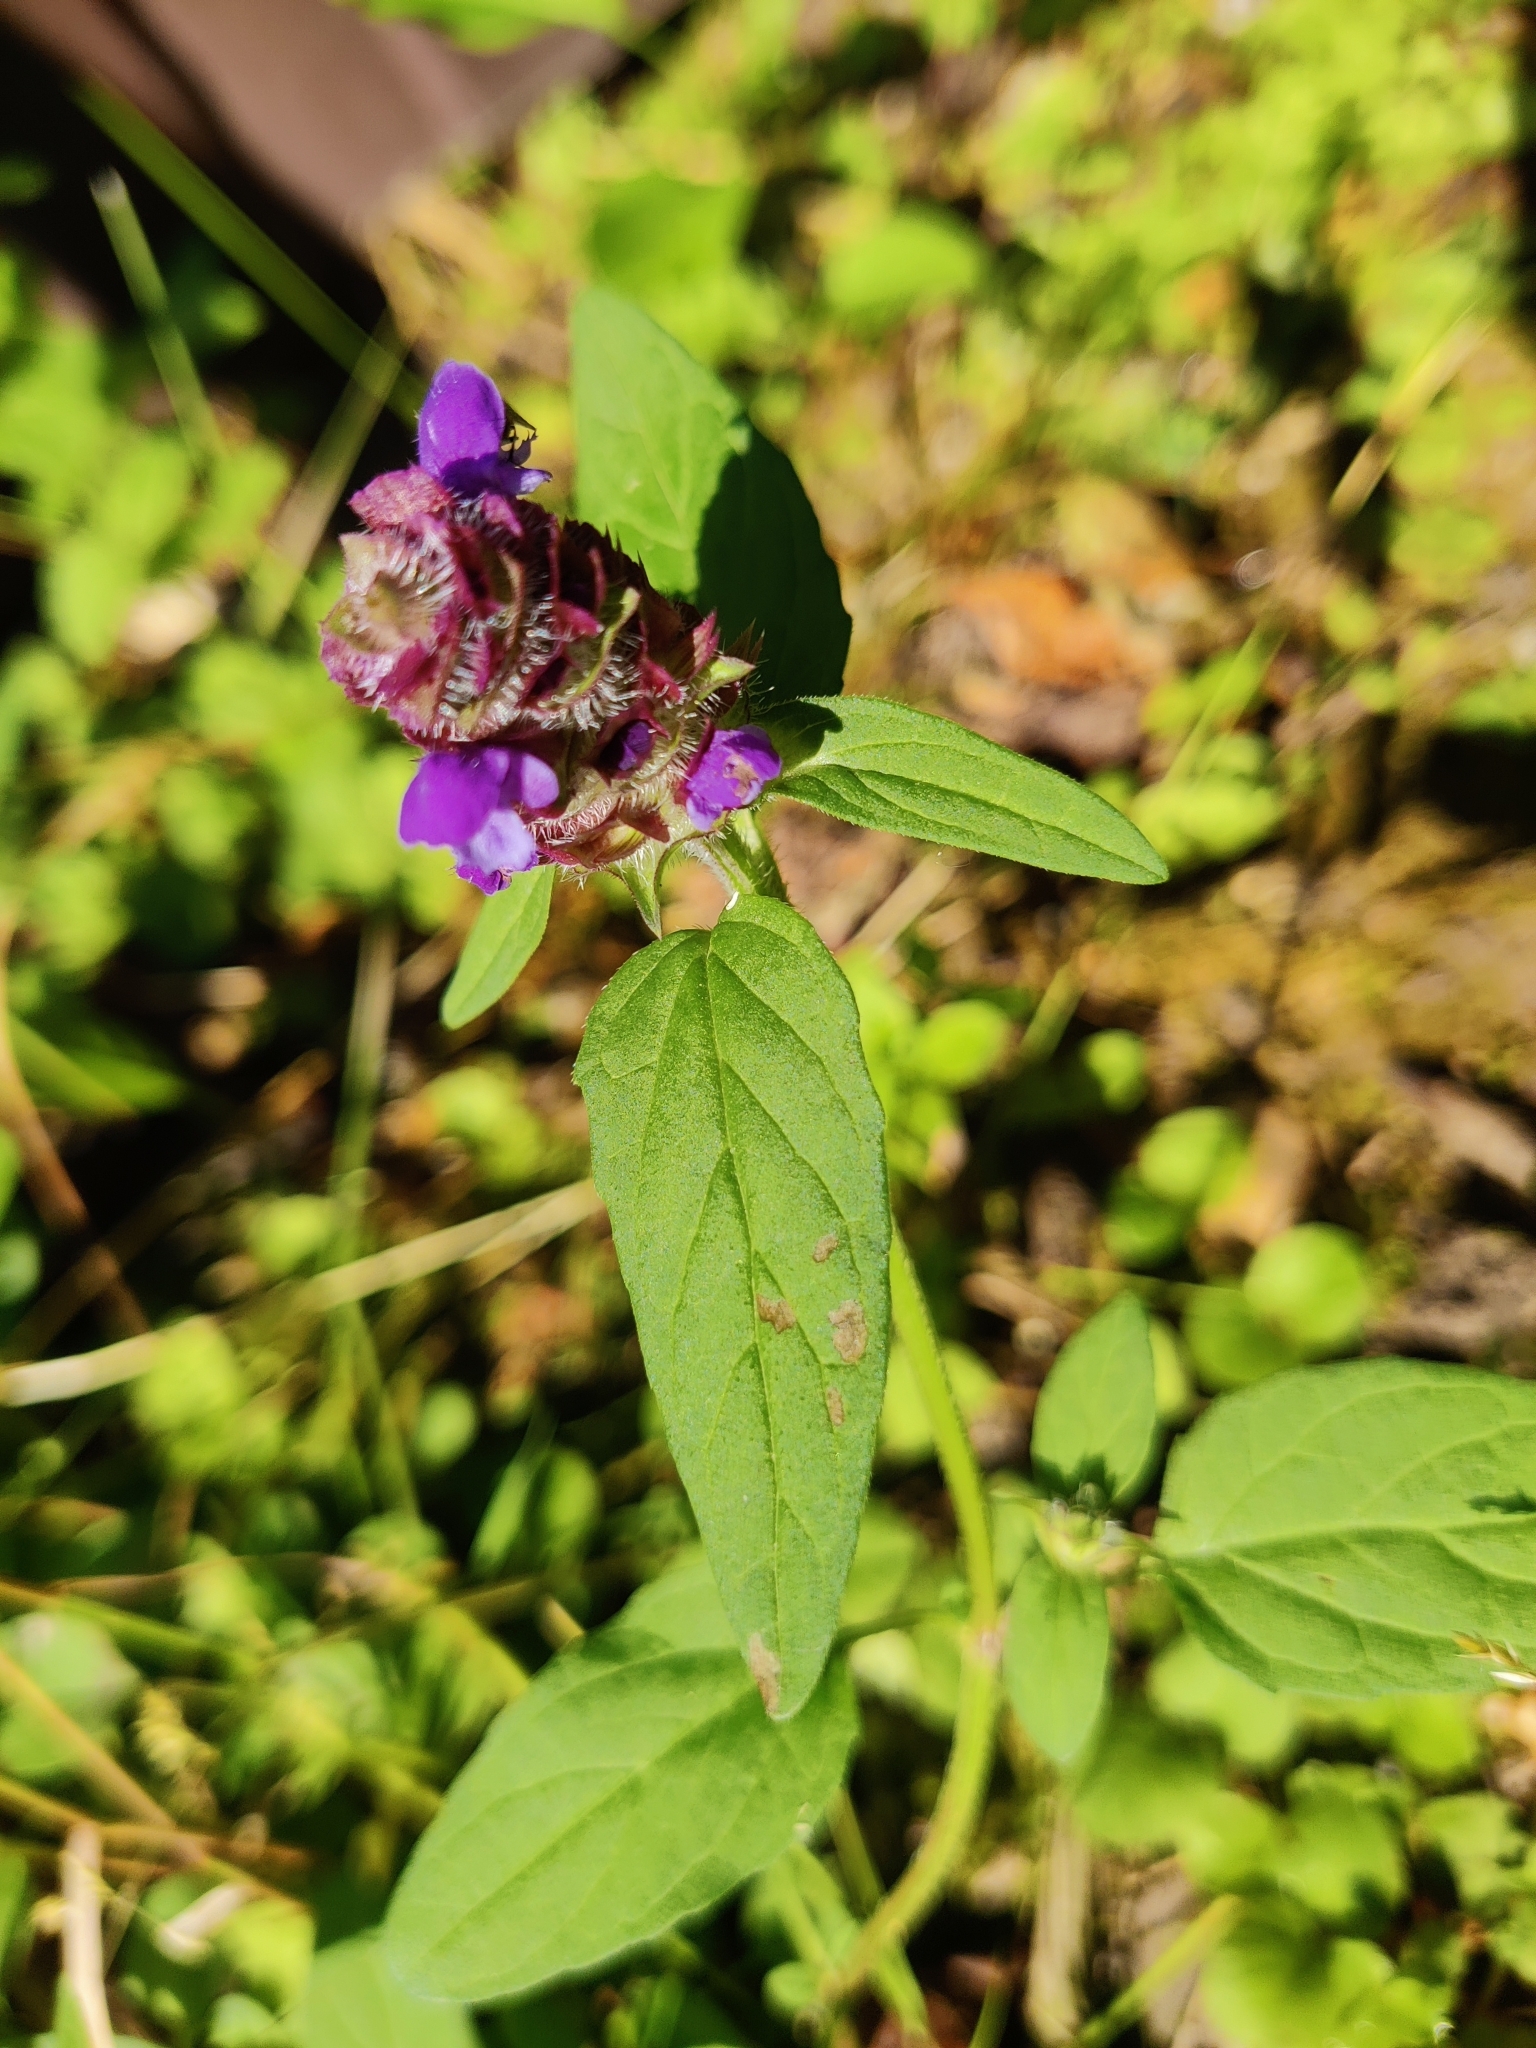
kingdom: Plantae
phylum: Tracheophyta
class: Magnoliopsida
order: Lamiales
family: Lamiaceae
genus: Prunella
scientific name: Prunella vulgaris
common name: Heal-all
